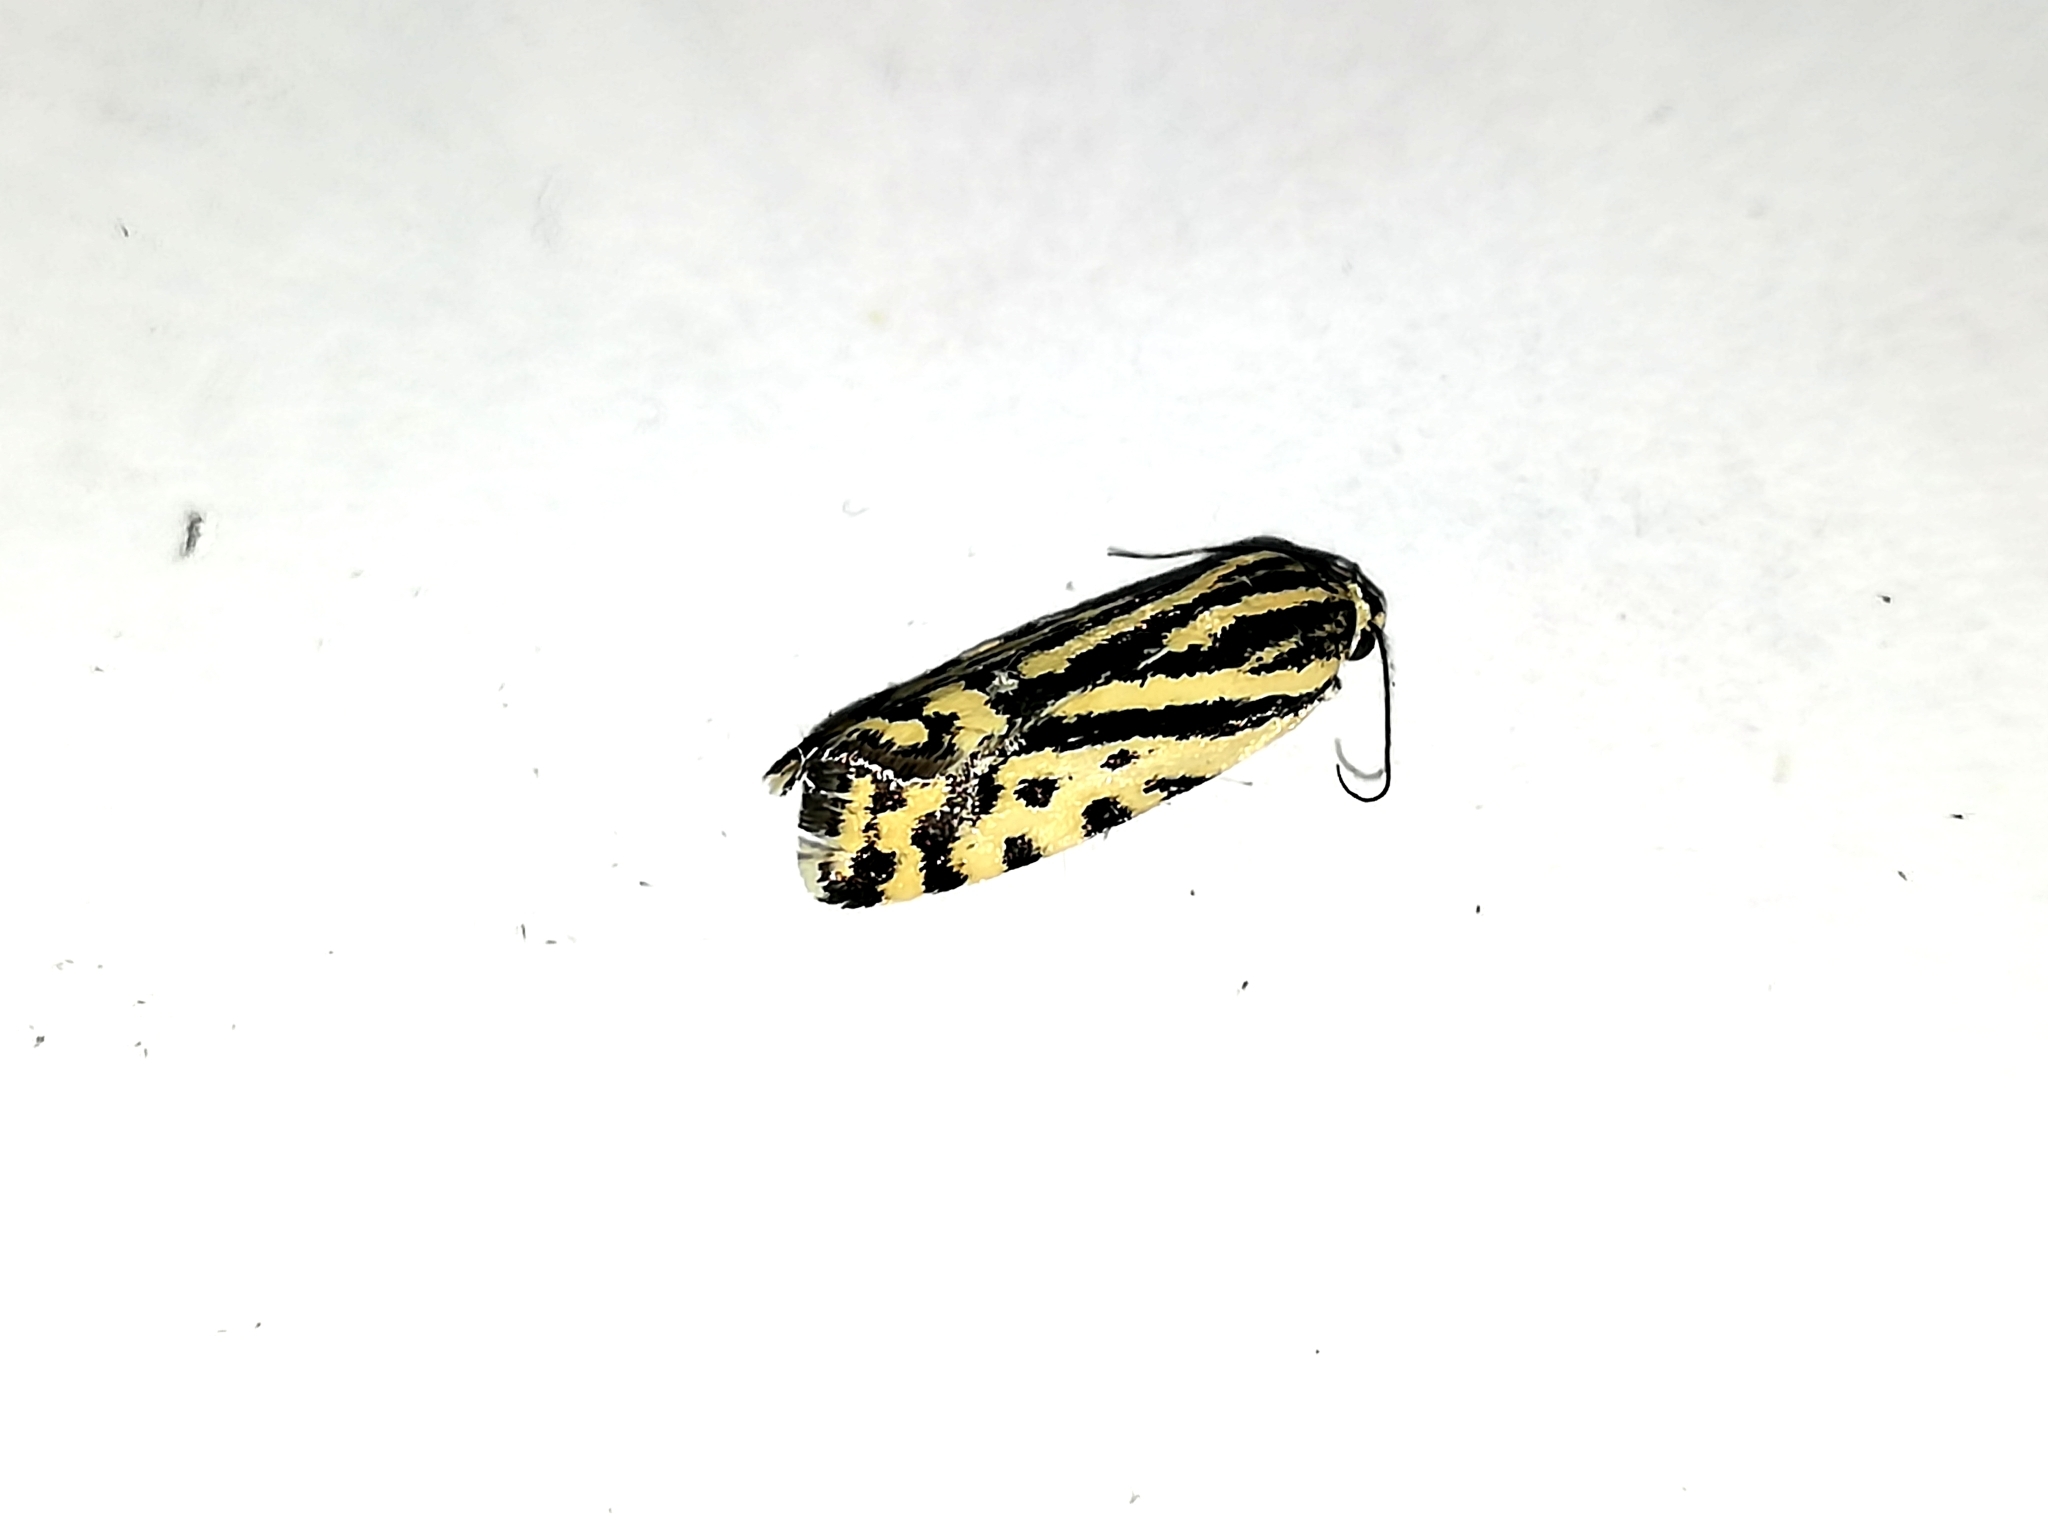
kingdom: Animalia
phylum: Arthropoda
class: Insecta
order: Lepidoptera
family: Noctuidae
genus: Acontia
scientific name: Acontia trabealis
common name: Spotted sulphur
